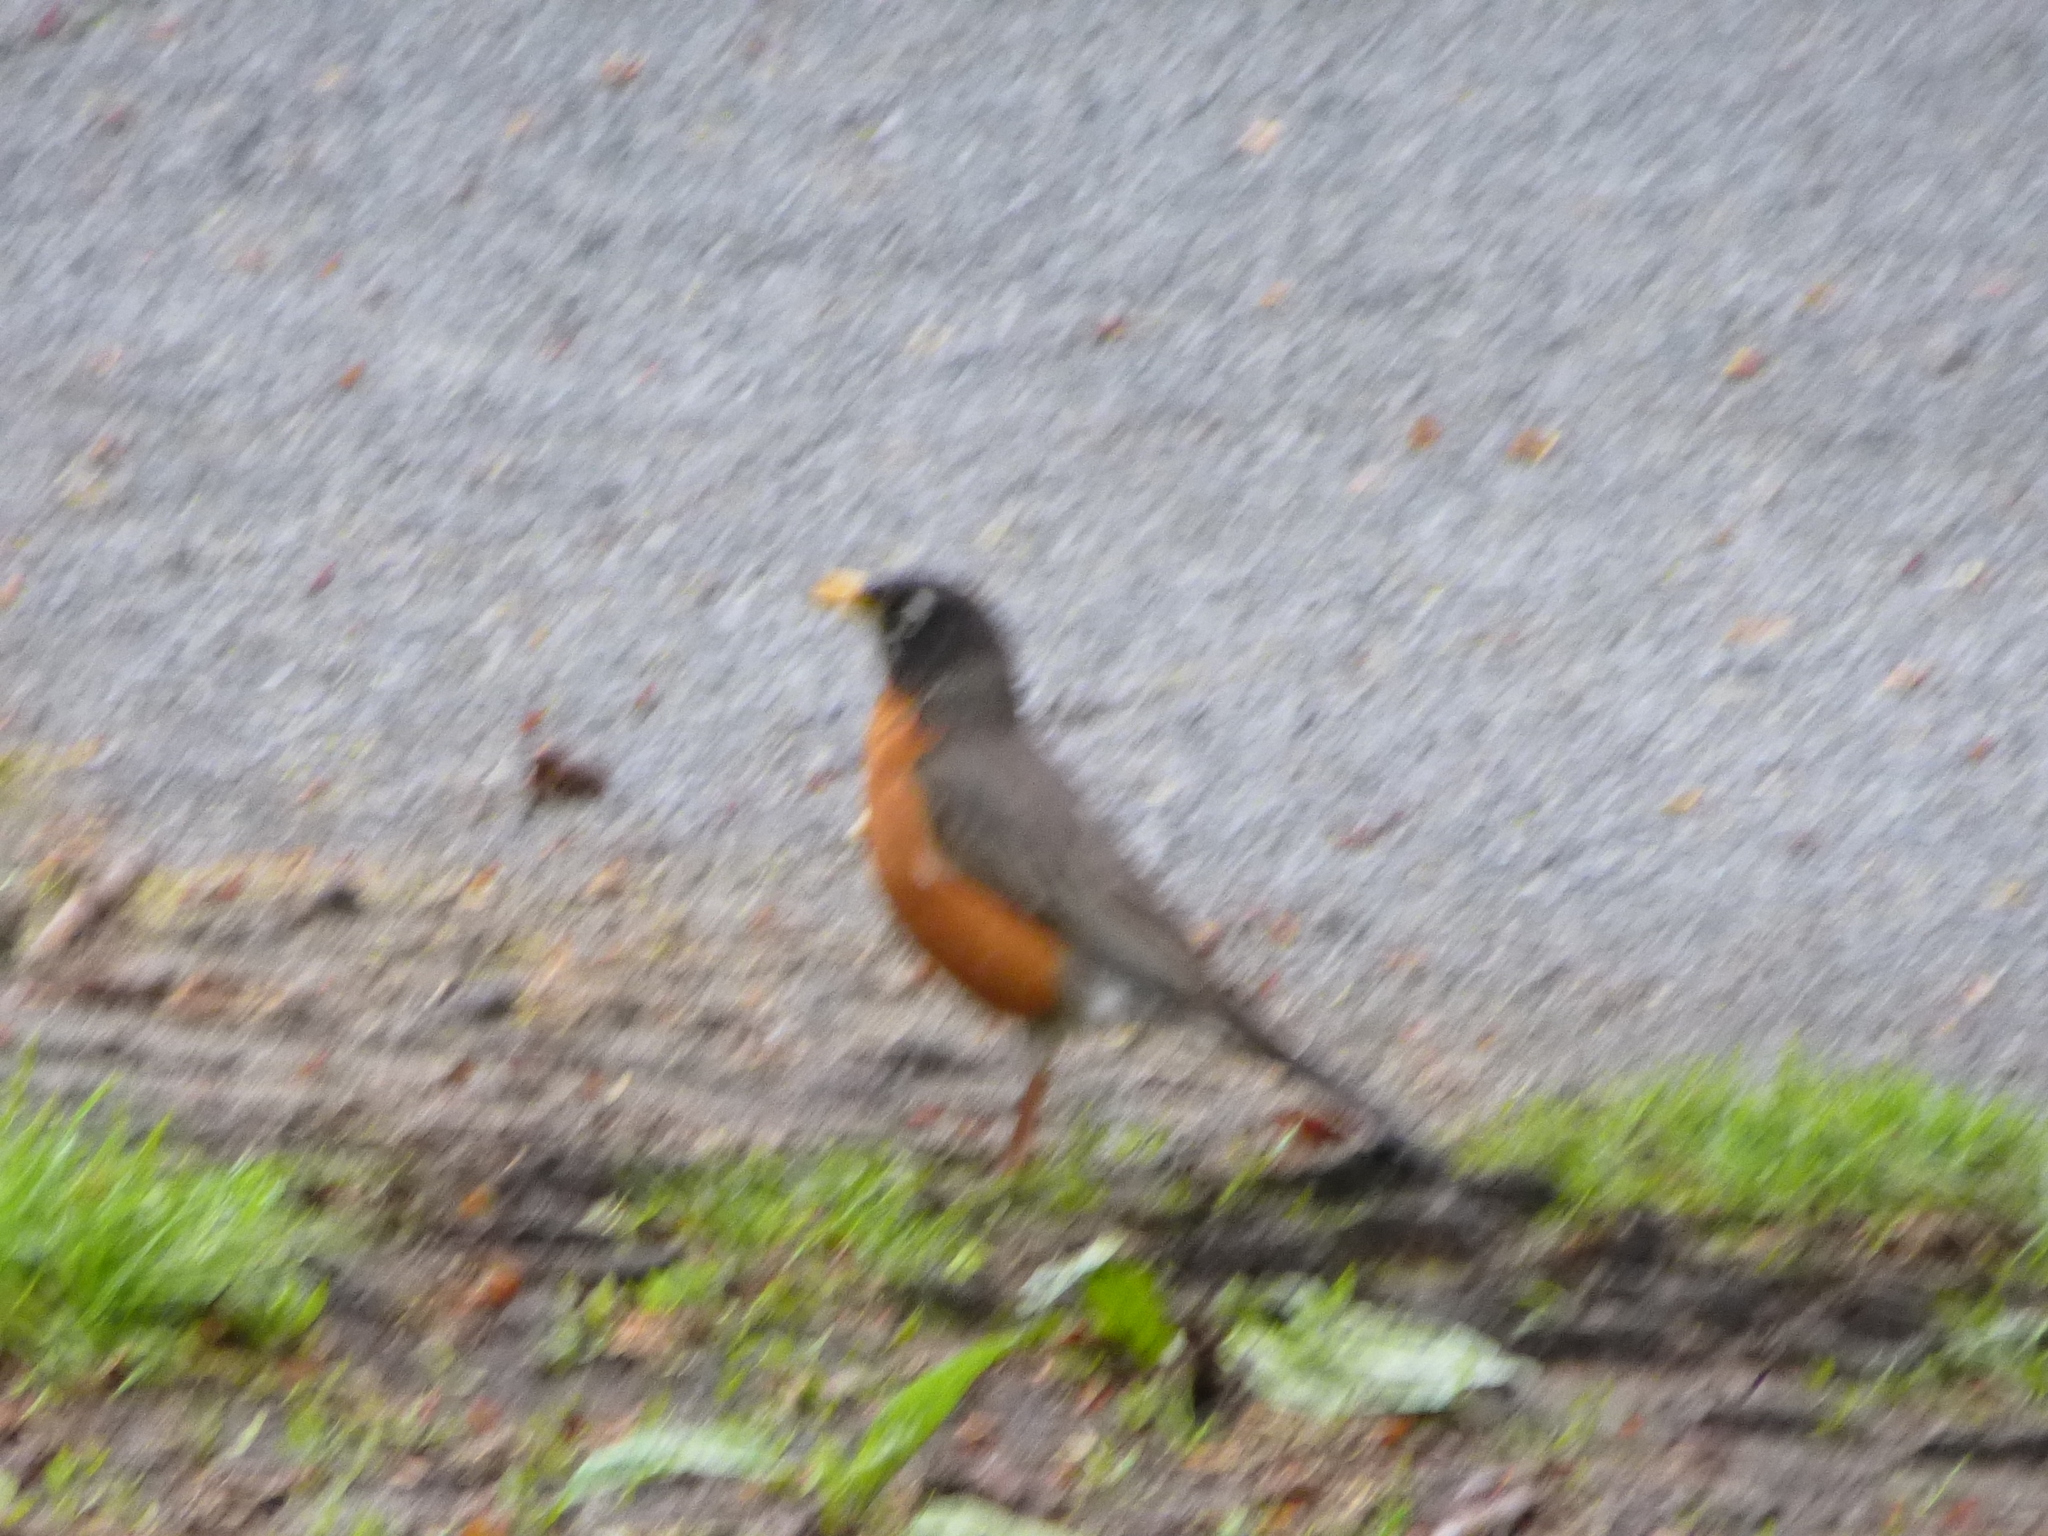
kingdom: Animalia
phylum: Chordata
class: Aves
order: Passeriformes
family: Turdidae
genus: Turdus
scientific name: Turdus migratorius
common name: American robin
